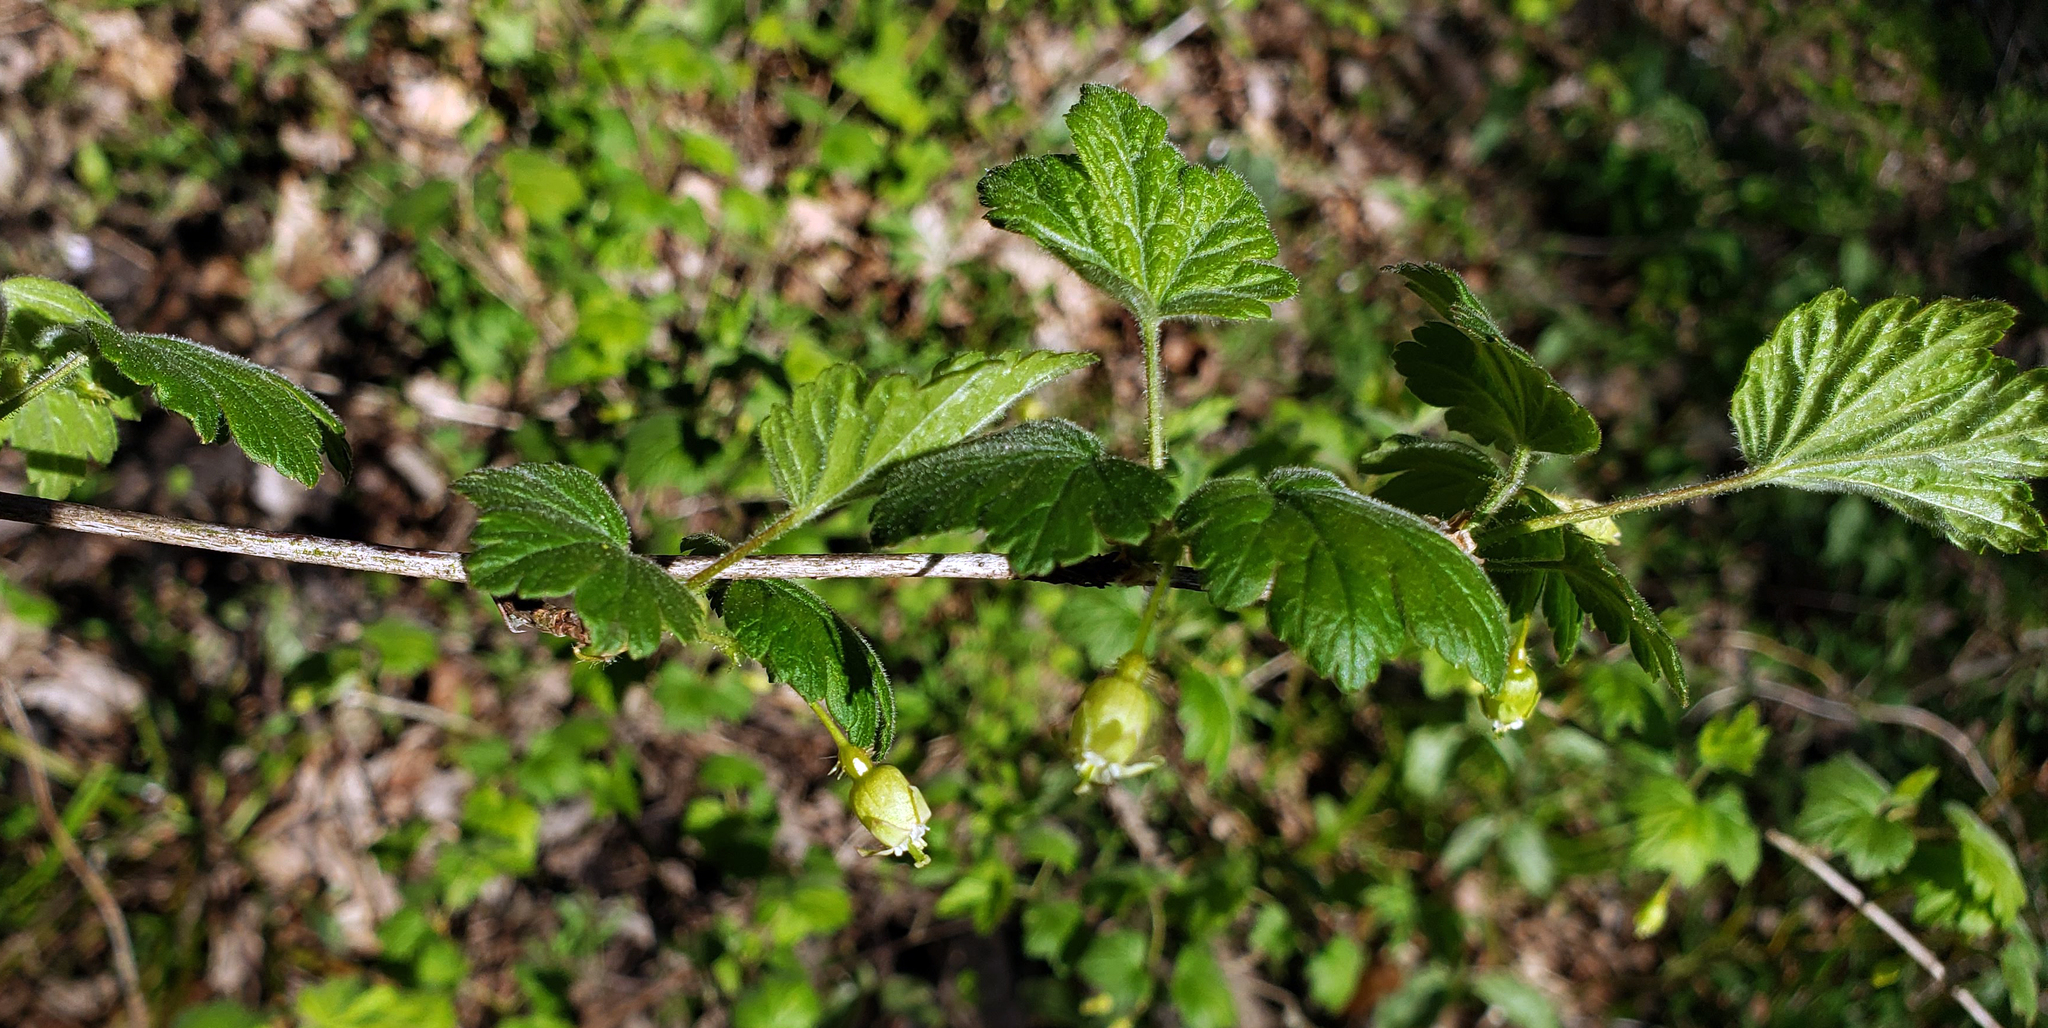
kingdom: Plantae
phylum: Tracheophyta
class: Magnoliopsida
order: Saxifragales
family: Grossulariaceae
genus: Ribes
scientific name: Ribes cynosbati
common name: American gooseberry
